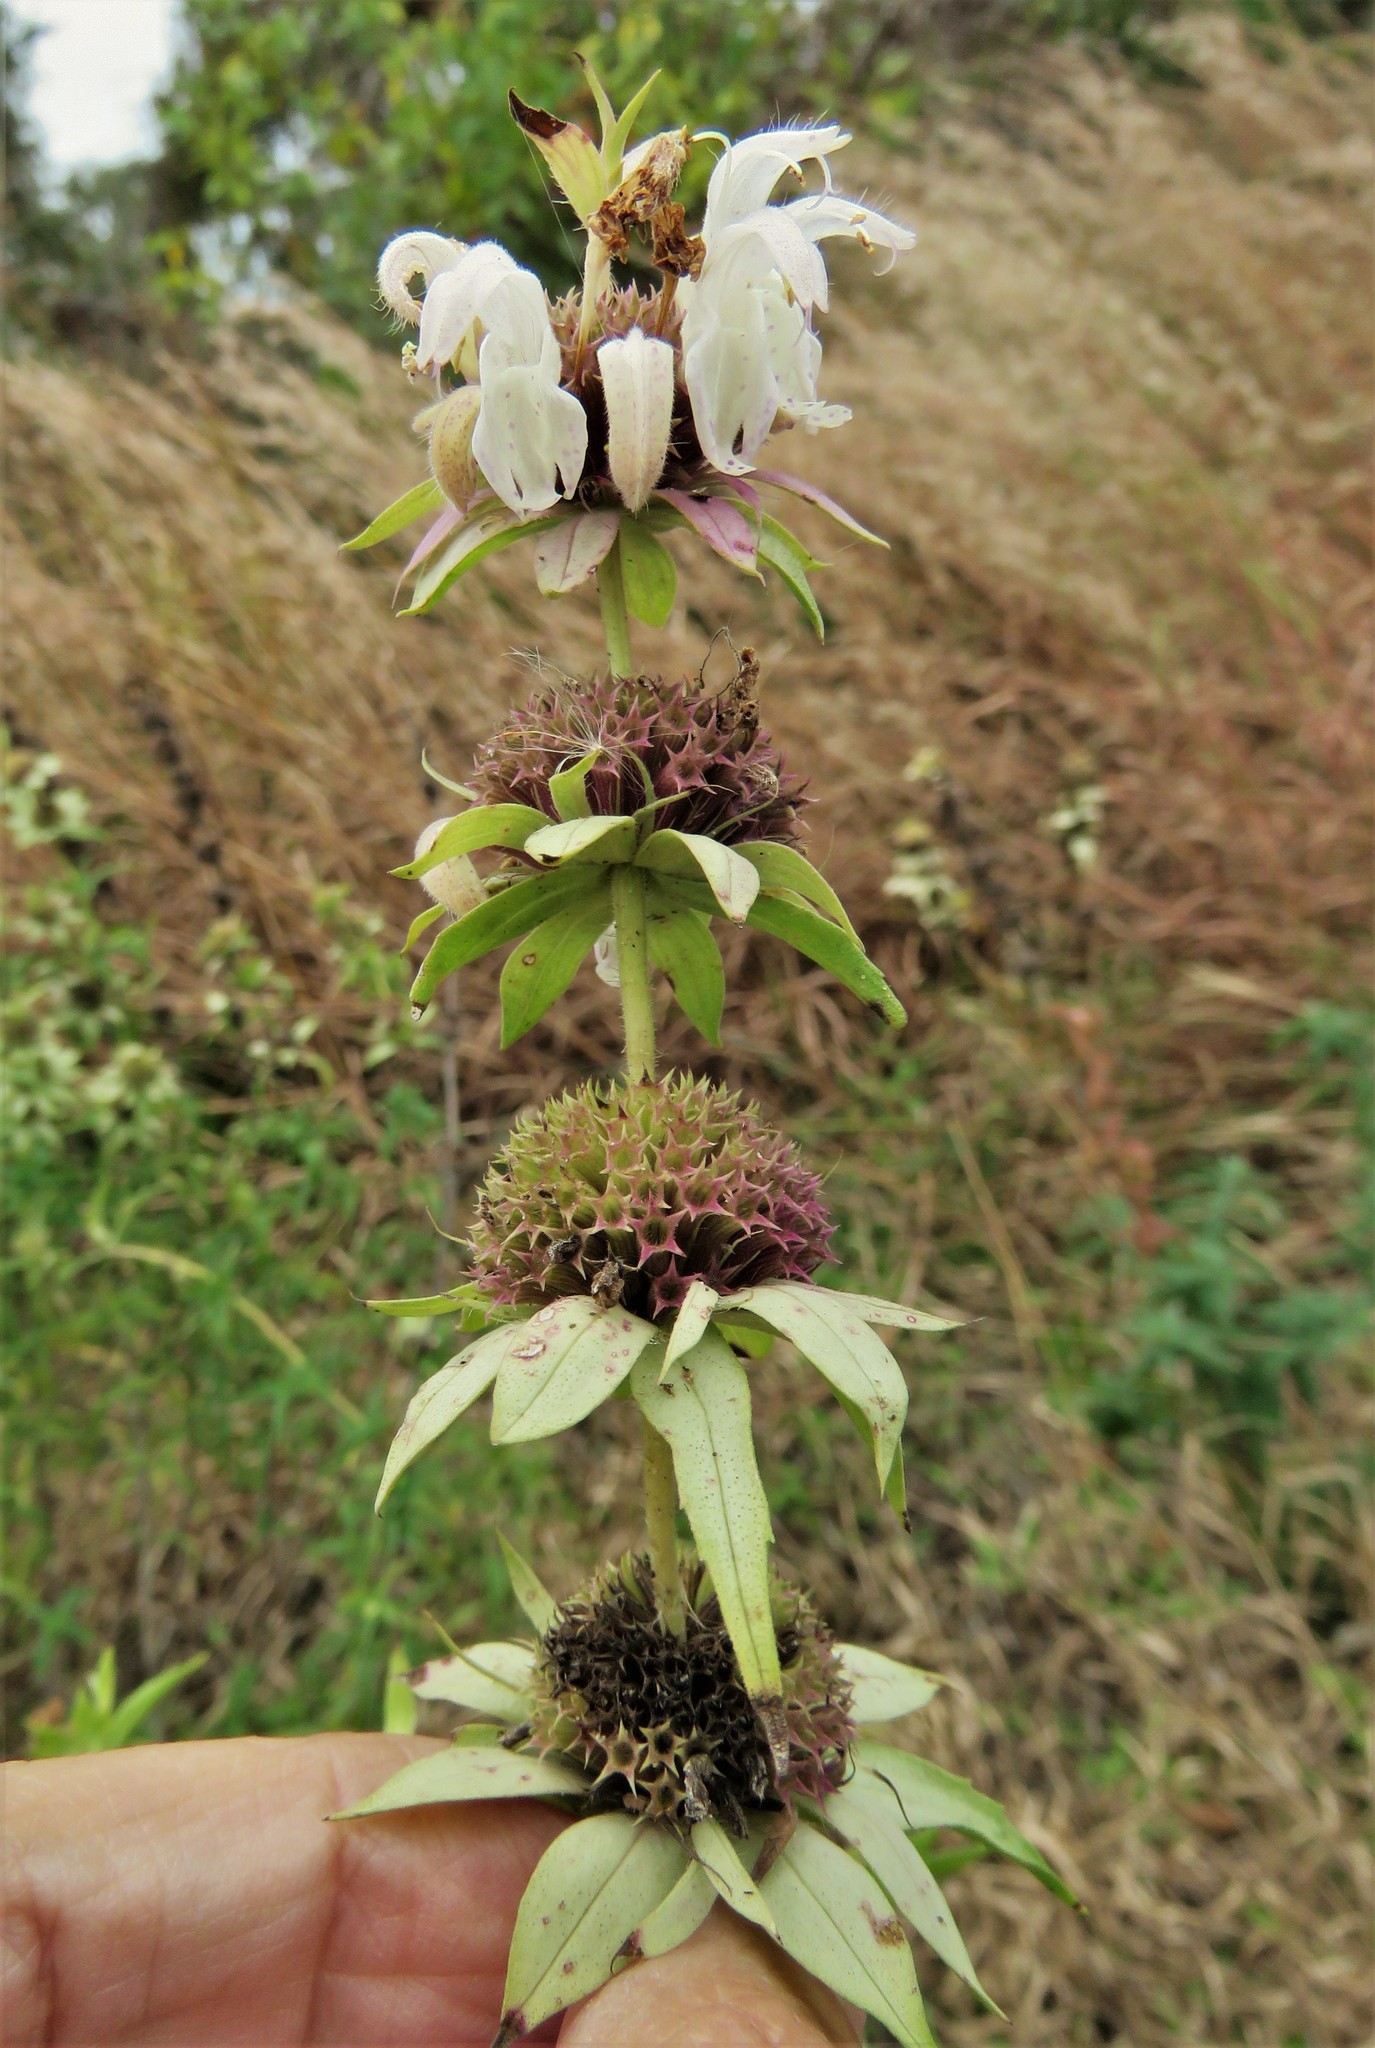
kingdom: Plantae
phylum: Tracheophyta
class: Magnoliopsida
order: Lamiales
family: Lamiaceae
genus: Monarda
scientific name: Monarda maritima
